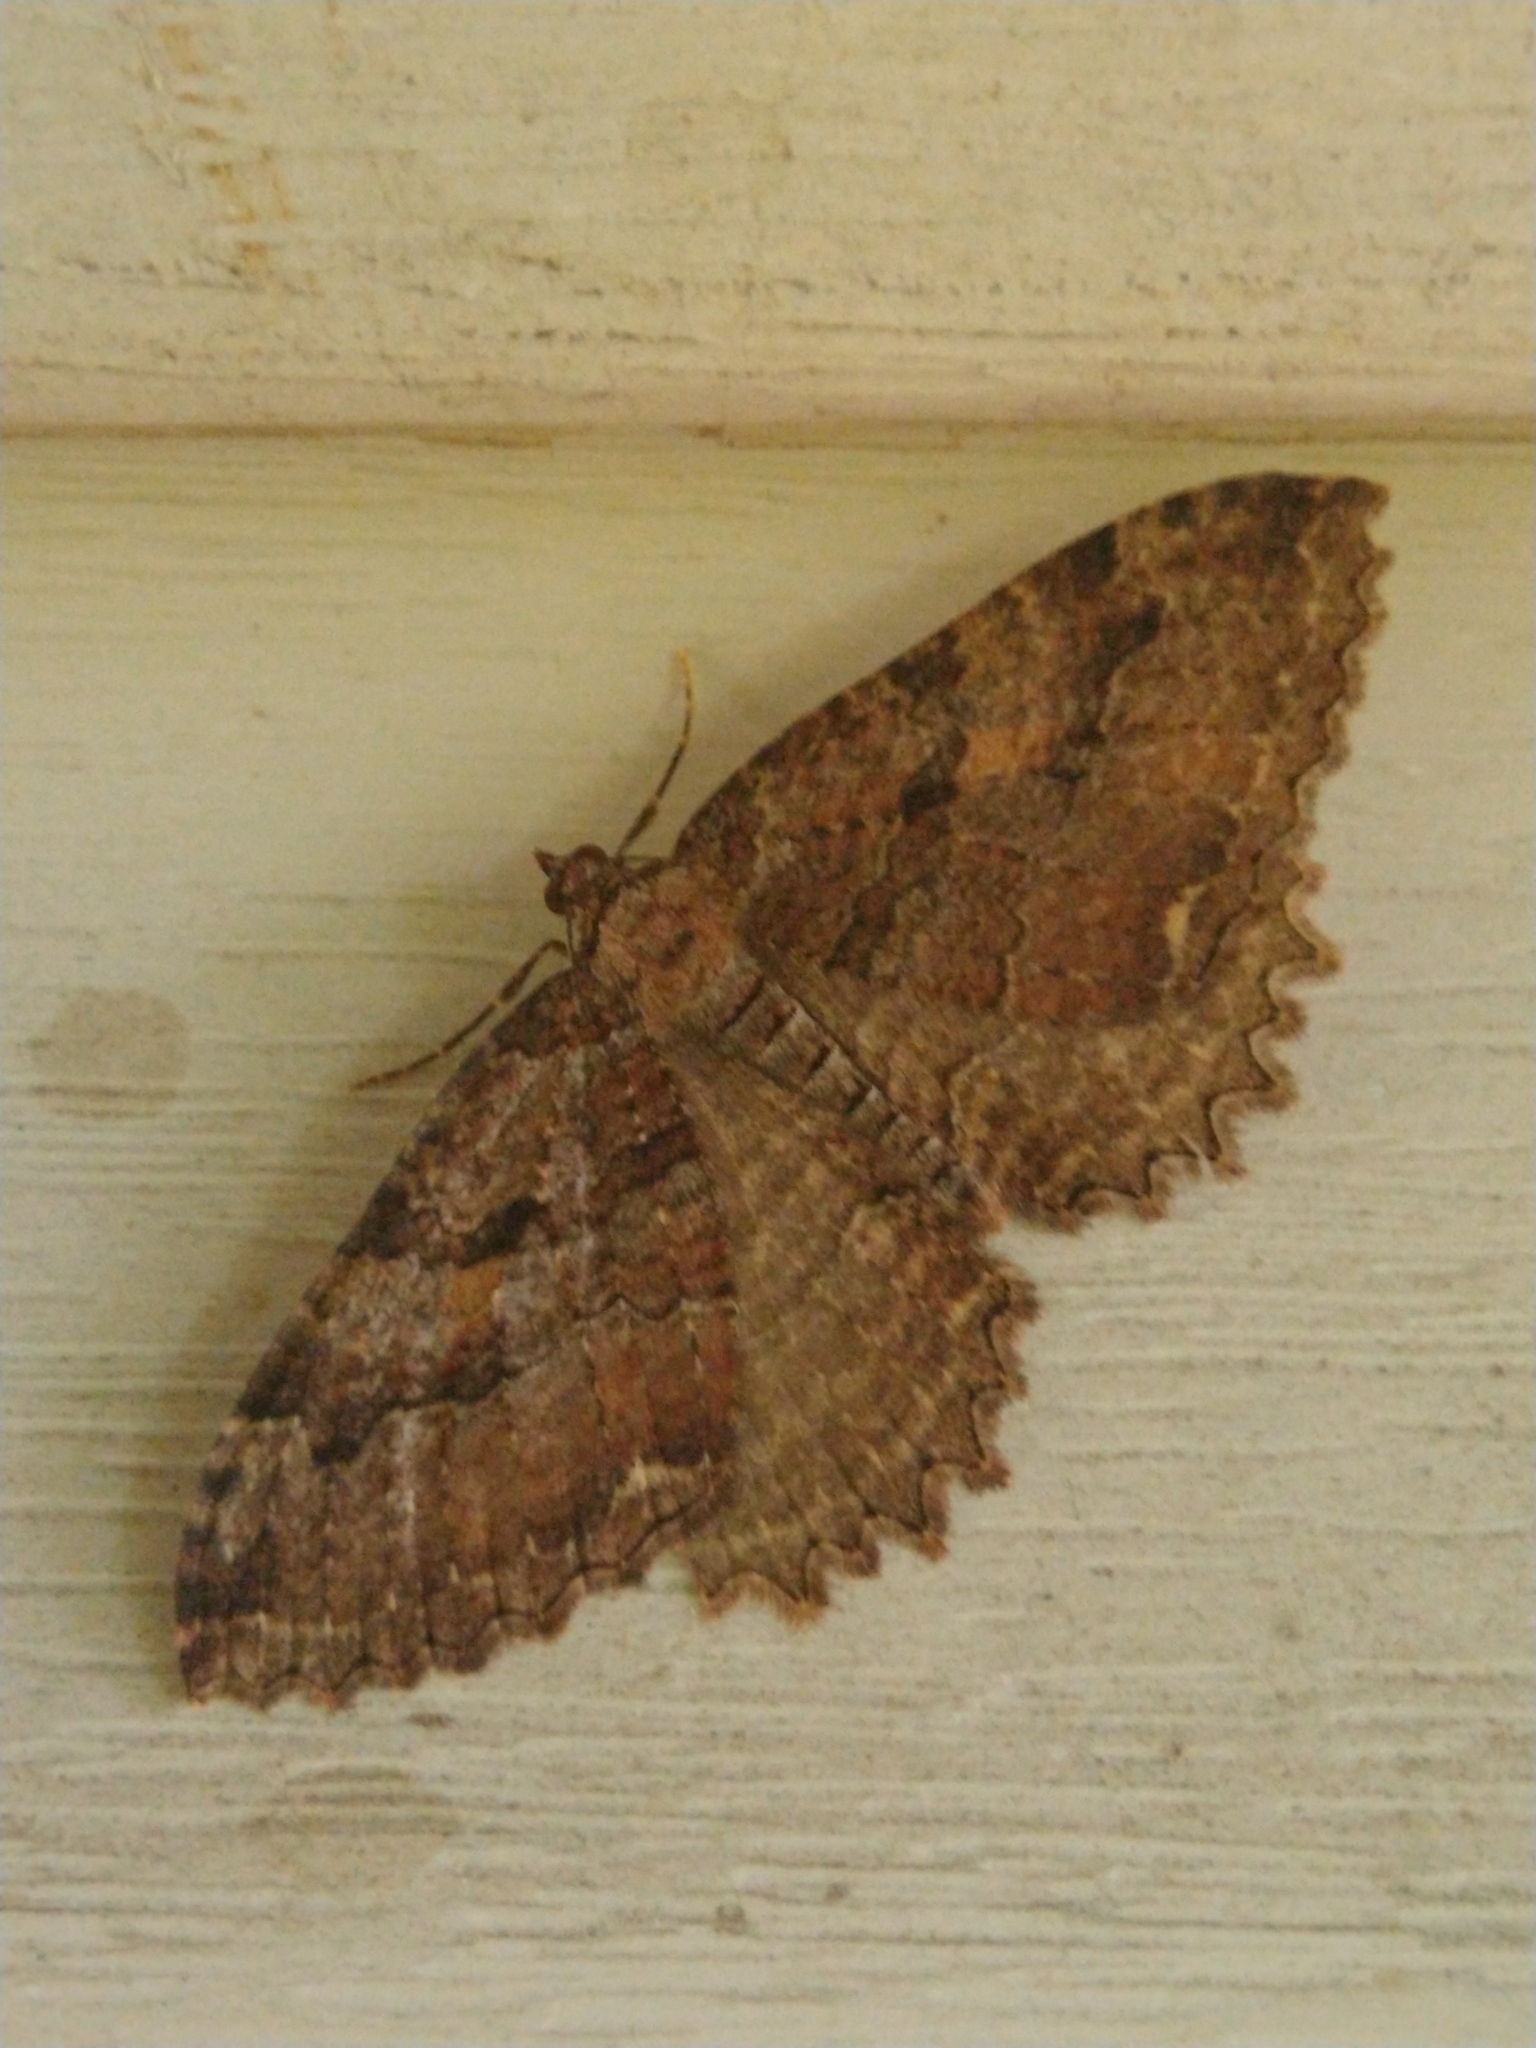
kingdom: Animalia
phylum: Arthropoda
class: Insecta
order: Lepidoptera
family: Geometridae
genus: Triphosa
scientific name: Triphosa haesitata
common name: Tissue moth
